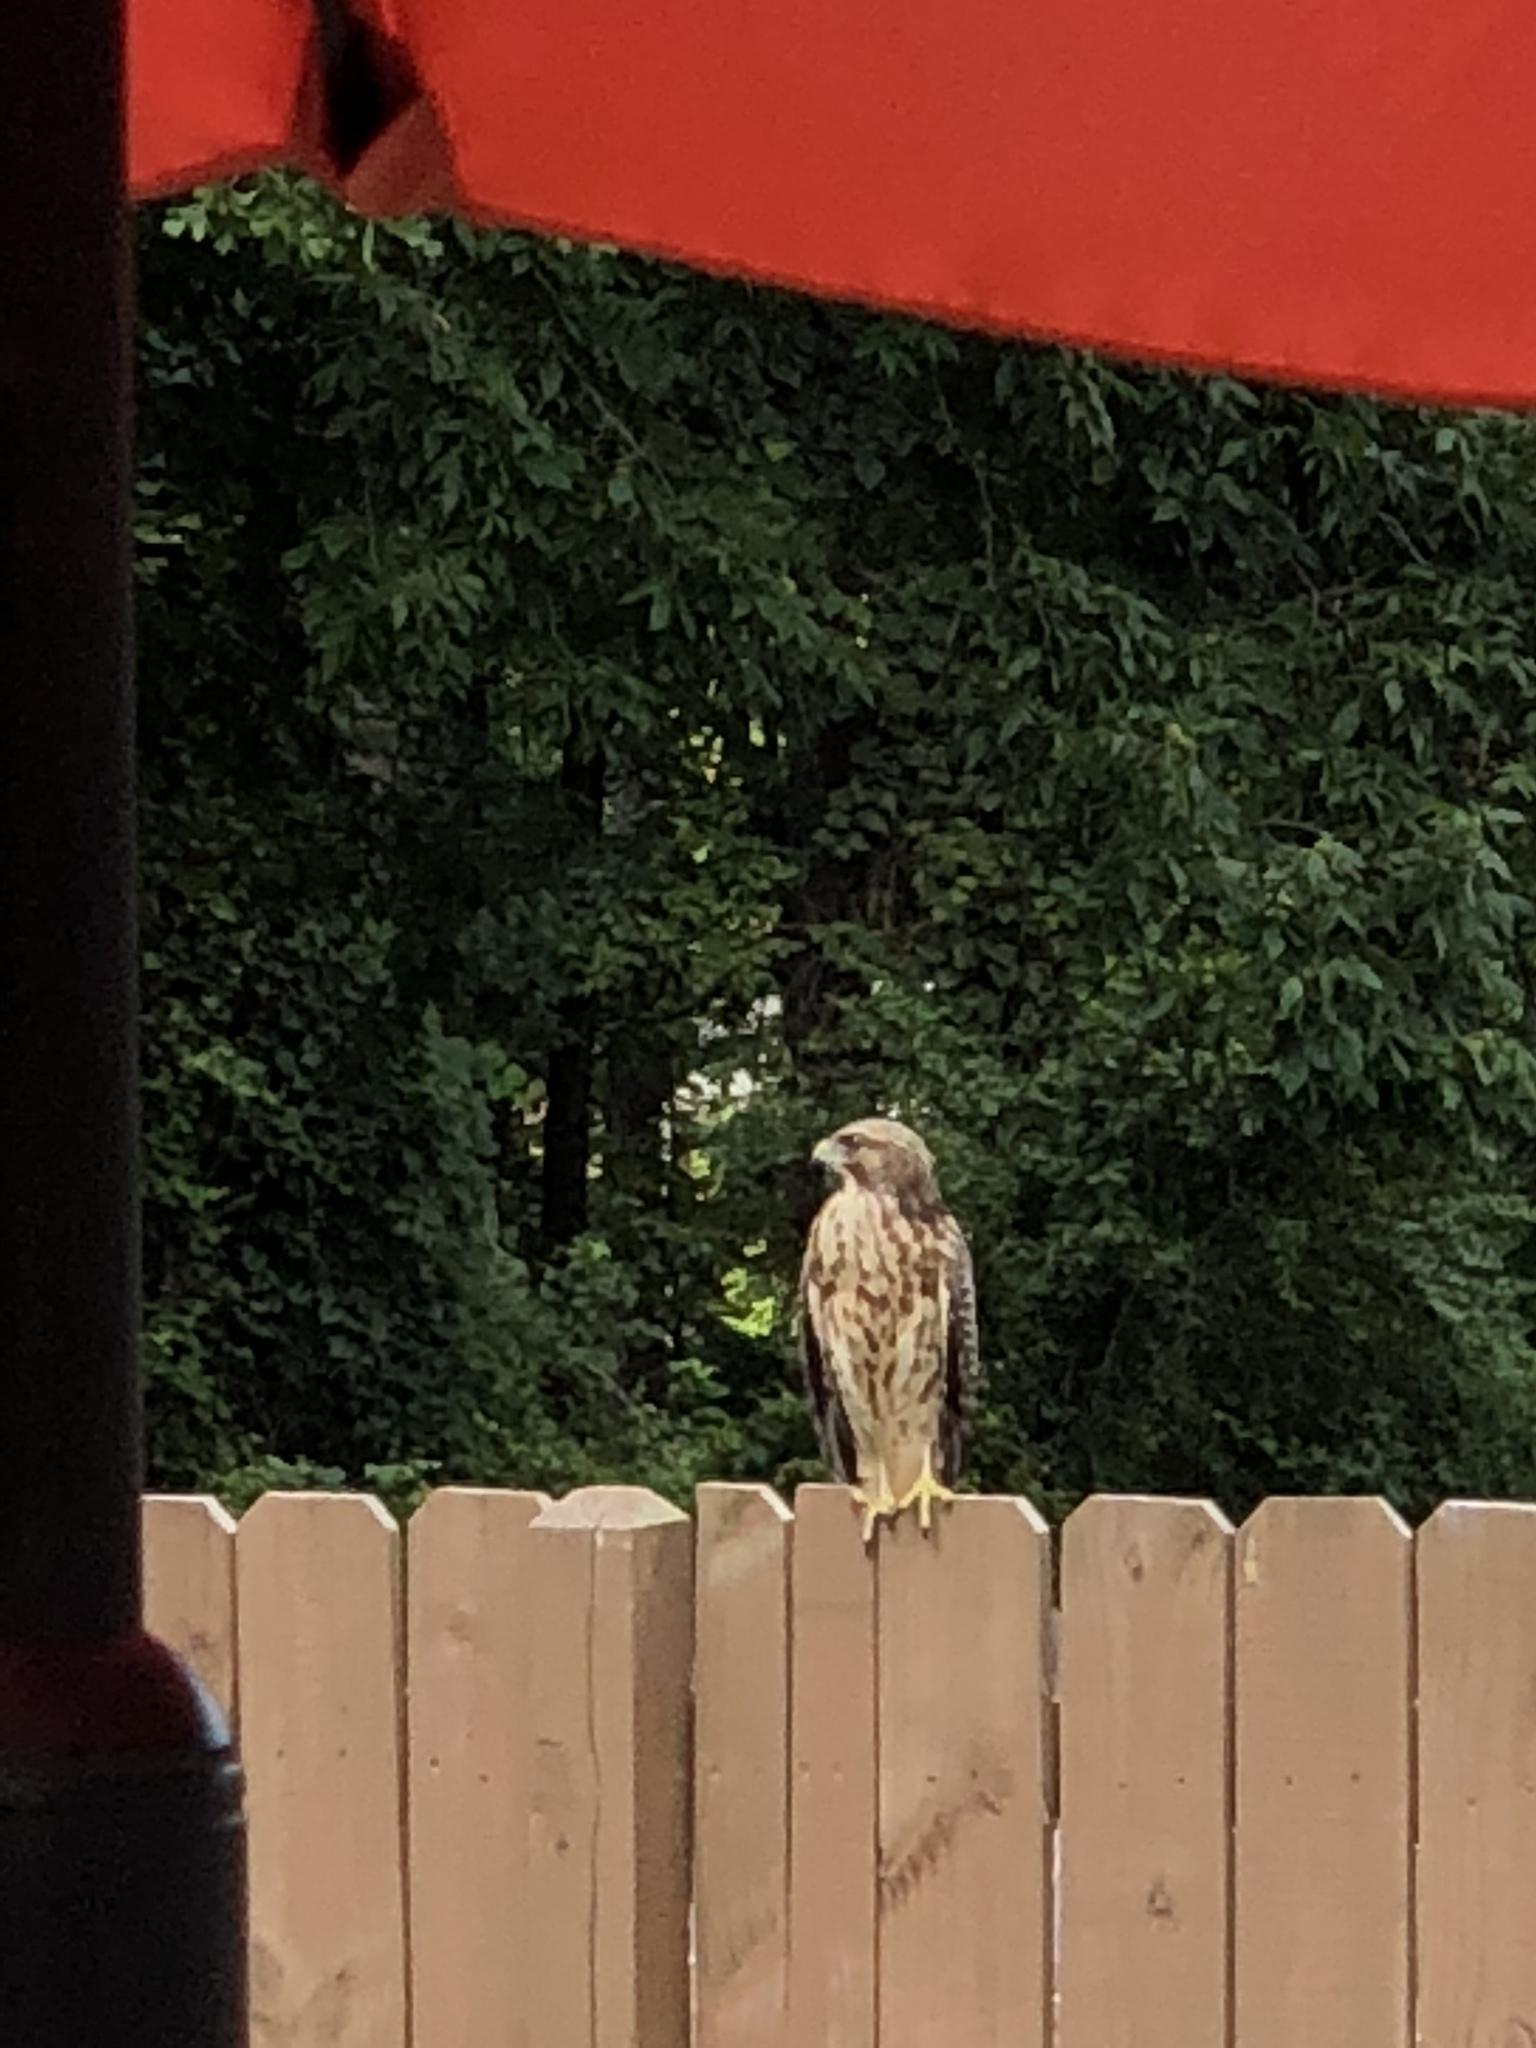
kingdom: Animalia
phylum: Chordata
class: Aves
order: Accipitriformes
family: Accipitridae
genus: Buteo
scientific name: Buteo lineatus
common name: Red-shouldered hawk
